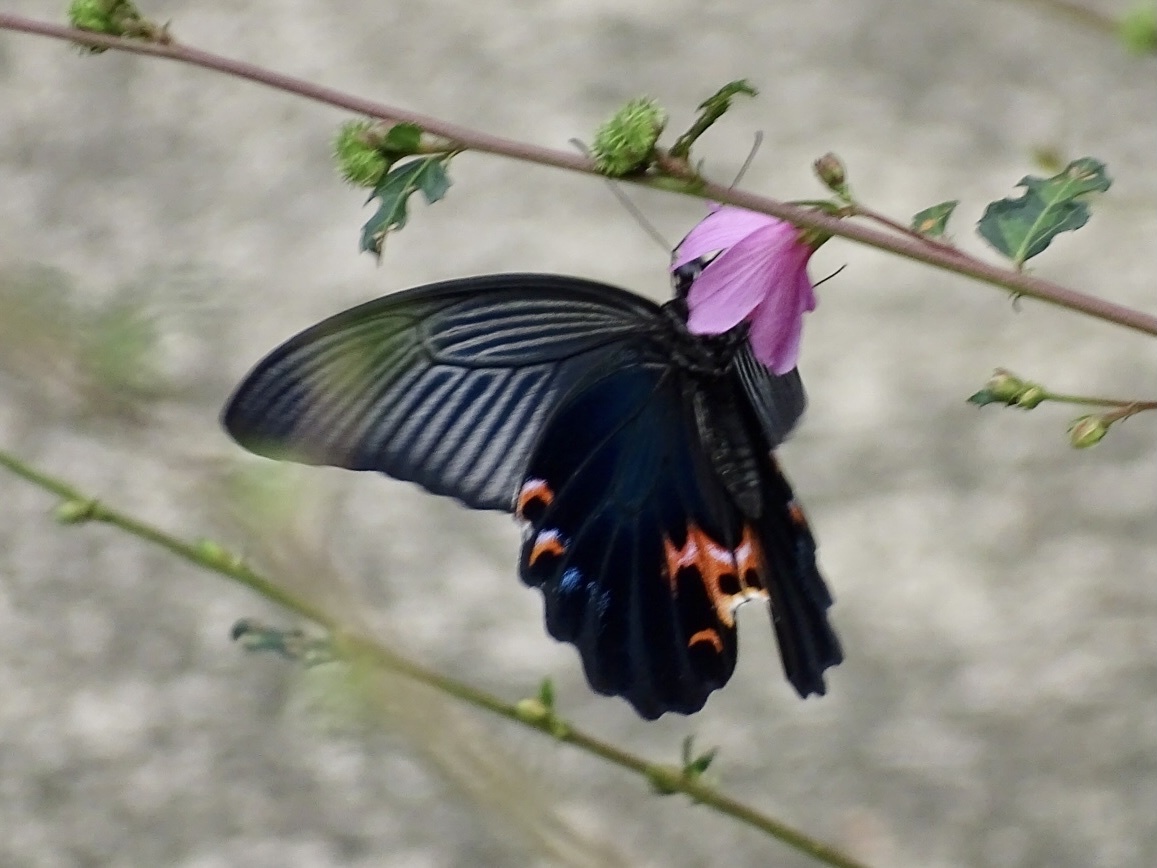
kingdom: Animalia
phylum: Arthropoda
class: Insecta
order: Lepidoptera
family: Papilionidae
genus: Papilio
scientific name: Papilio protenor
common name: Spangle
